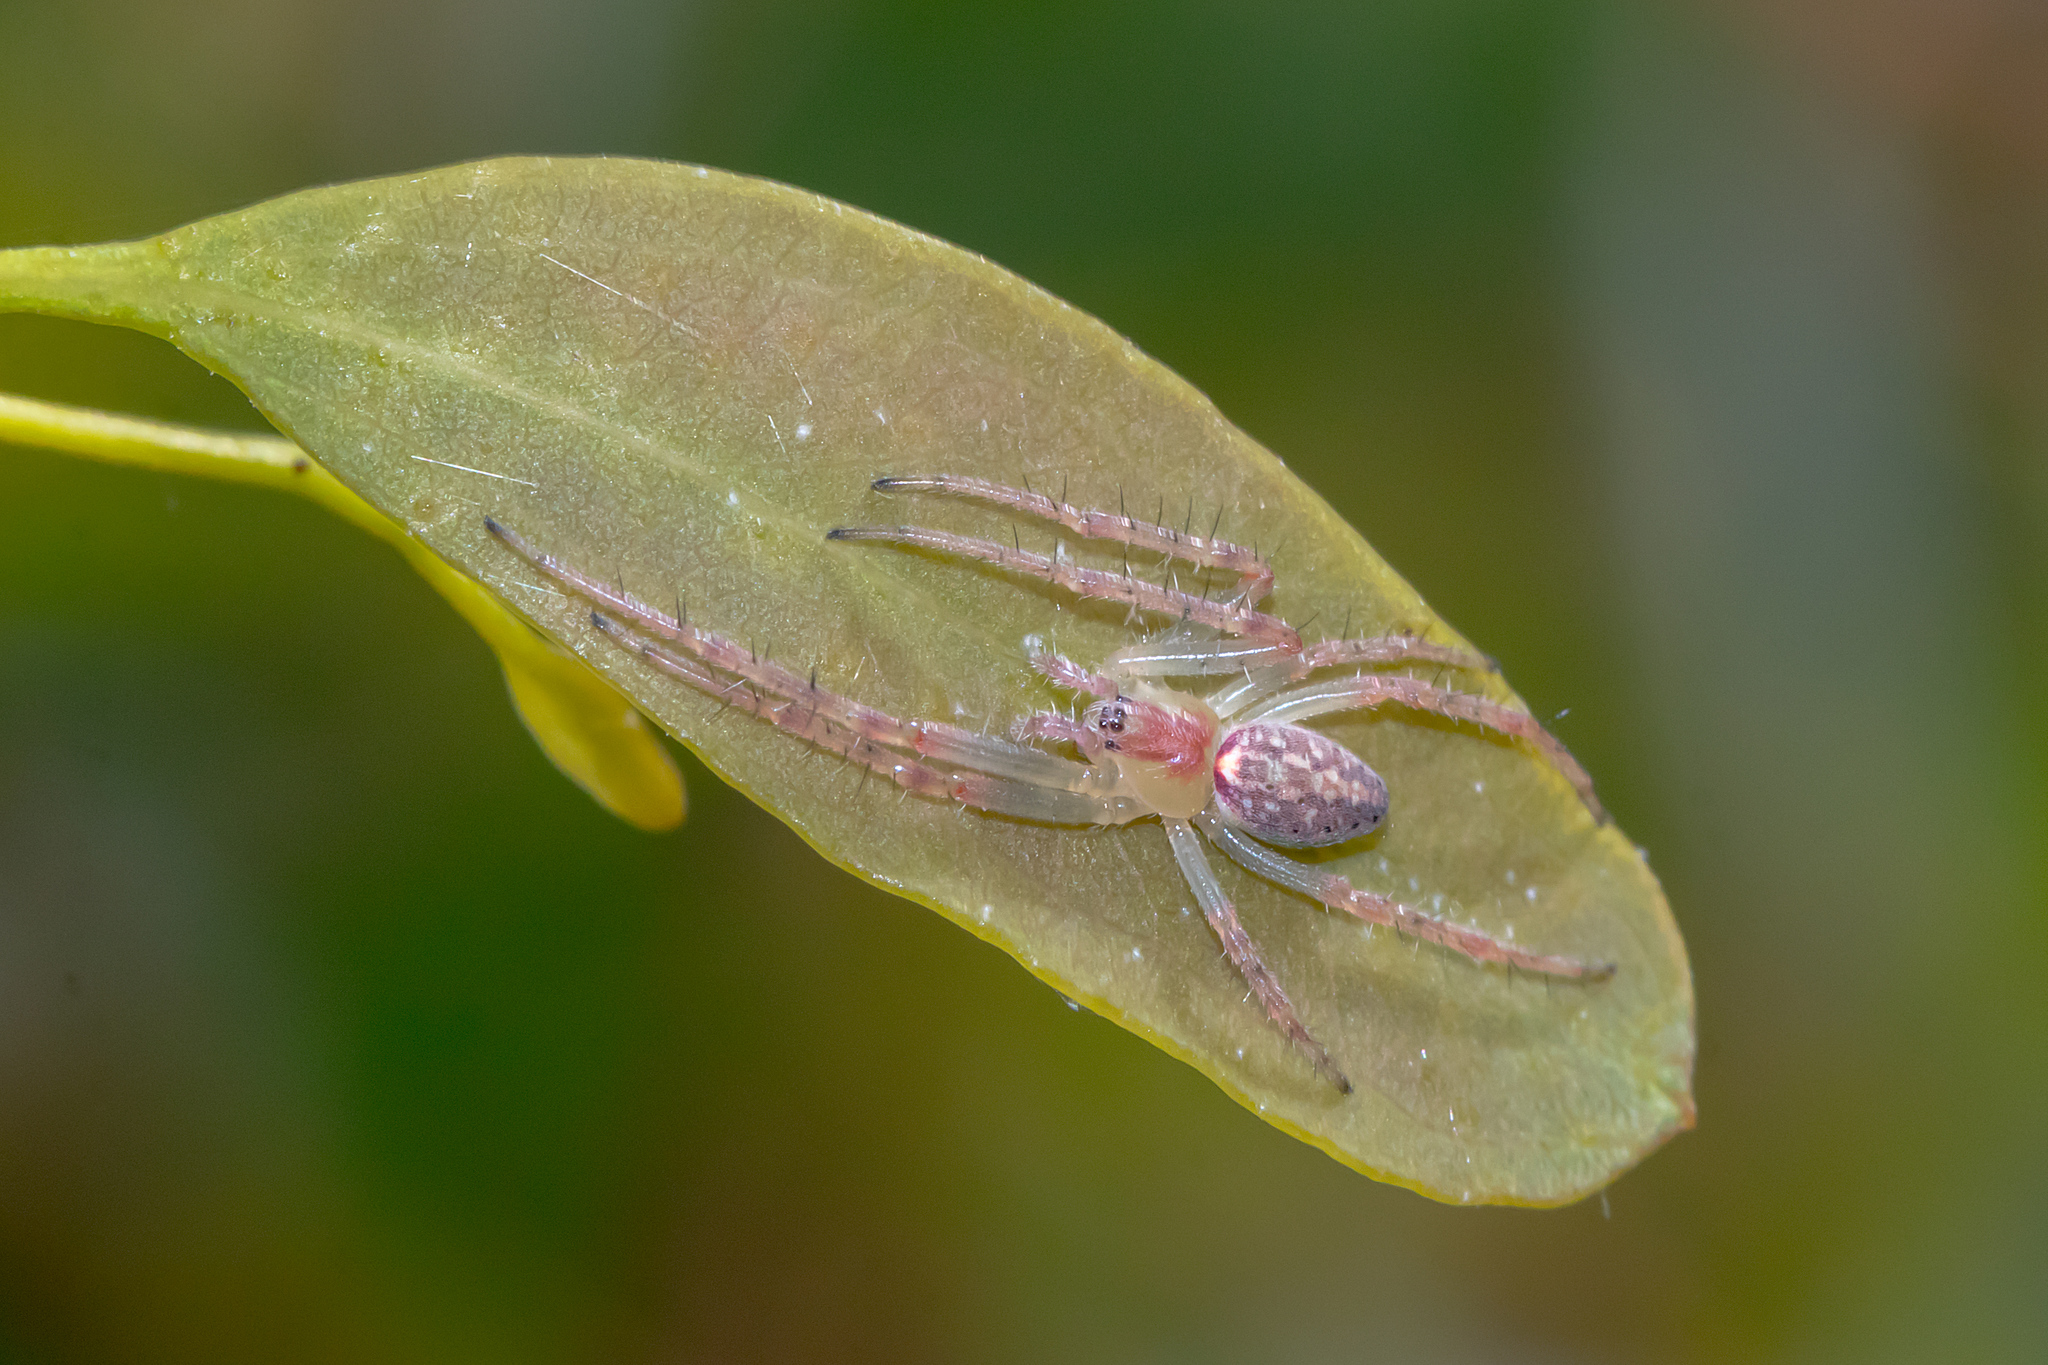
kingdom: Animalia
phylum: Arthropoda
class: Arachnida
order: Araneae
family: Araneidae
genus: Araneus
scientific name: Araneus talipedatus
